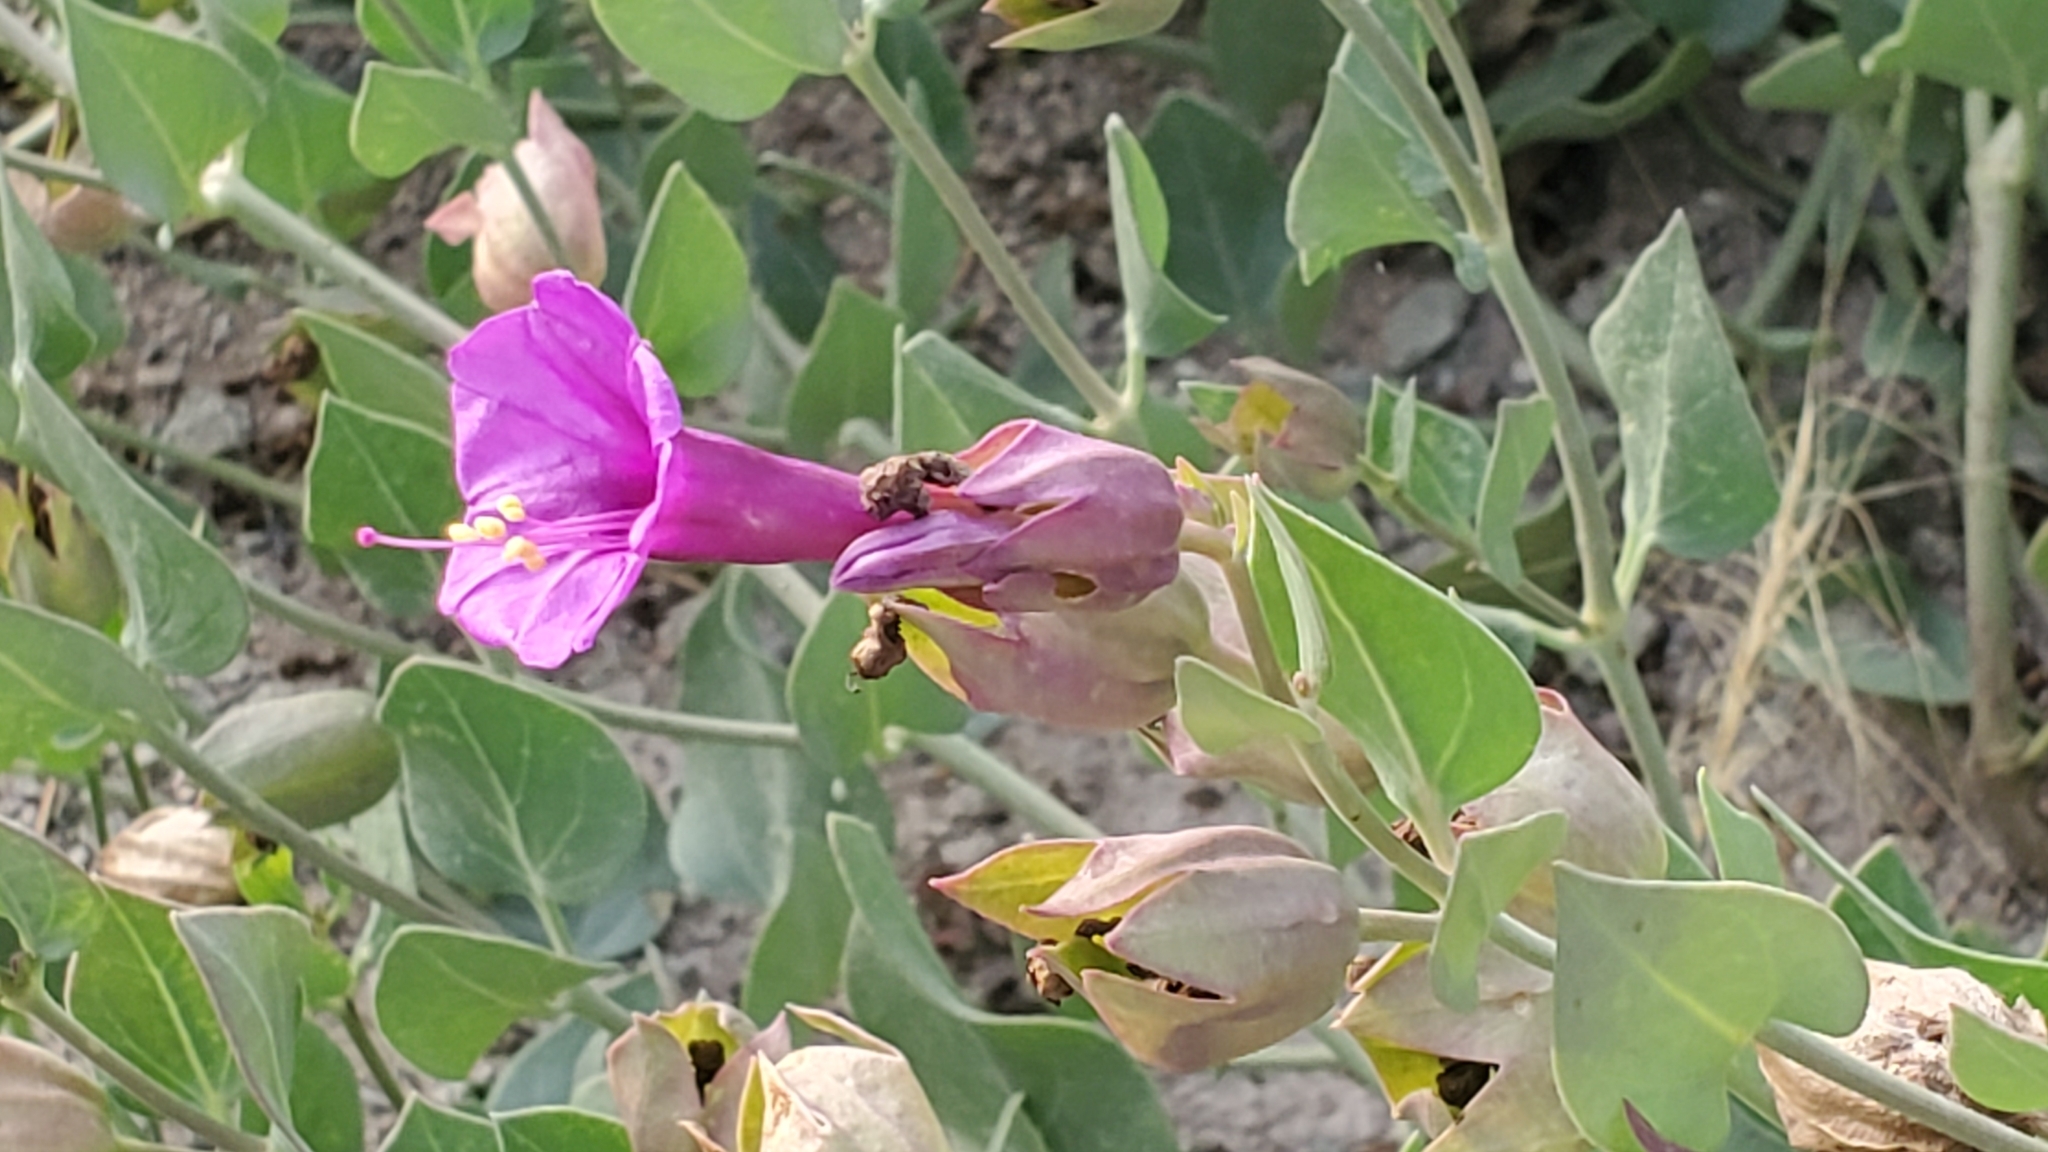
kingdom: Plantae
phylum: Tracheophyta
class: Magnoliopsida
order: Caryophyllales
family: Nyctaginaceae
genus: Mirabilis
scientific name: Mirabilis multiflora
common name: Froebel's four-o'clock
